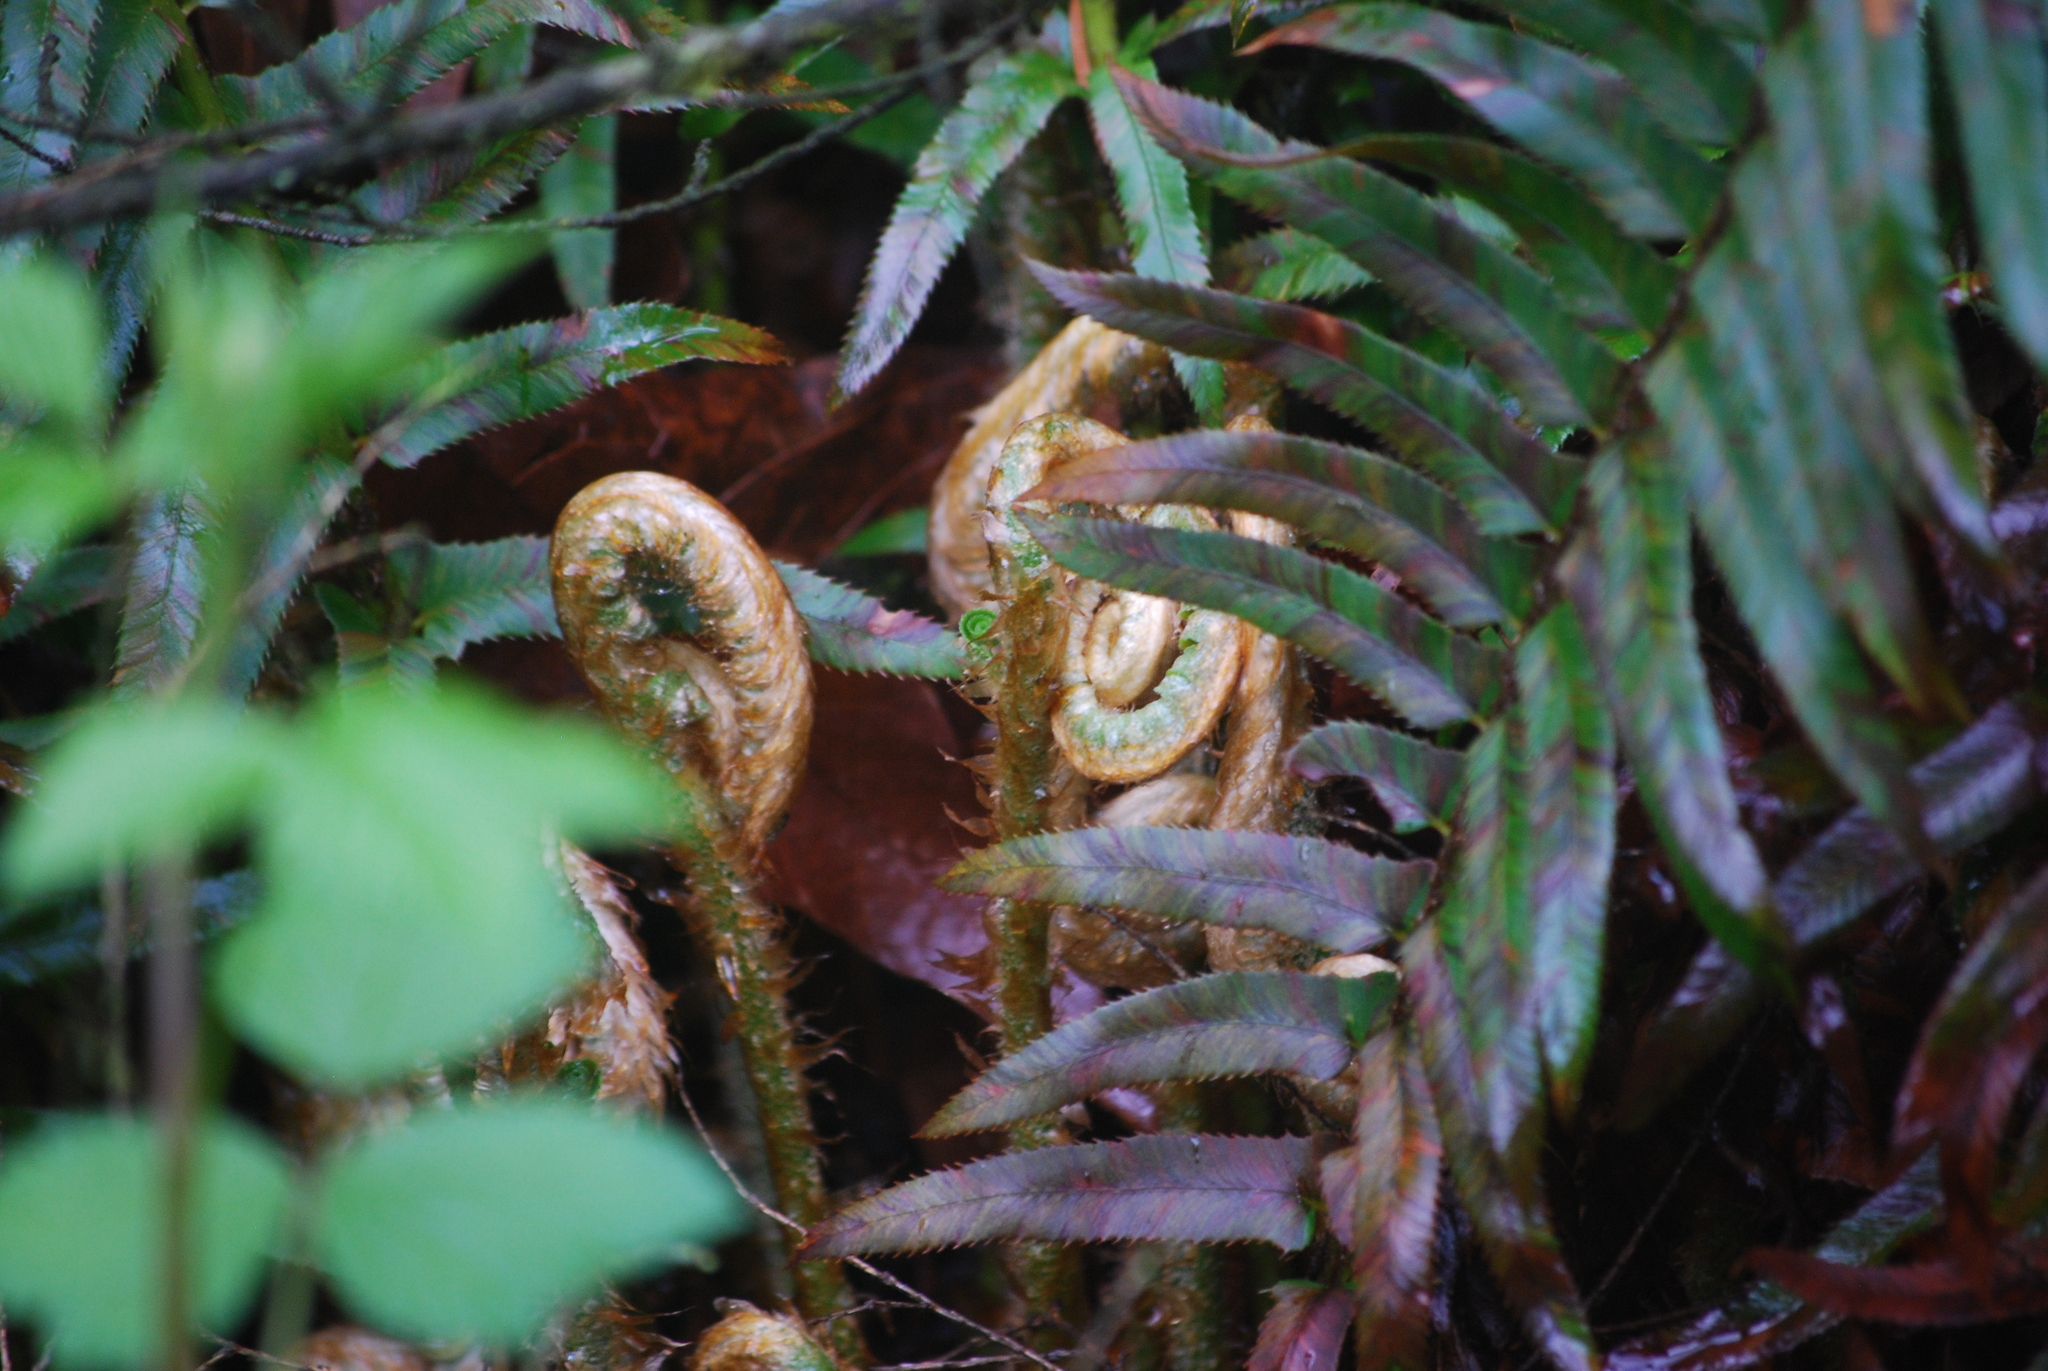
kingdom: Plantae
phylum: Tracheophyta
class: Polypodiopsida
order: Polypodiales
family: Dryopteridaceae
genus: Polystichum
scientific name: Polystichum munitum
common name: Western sword-fern
